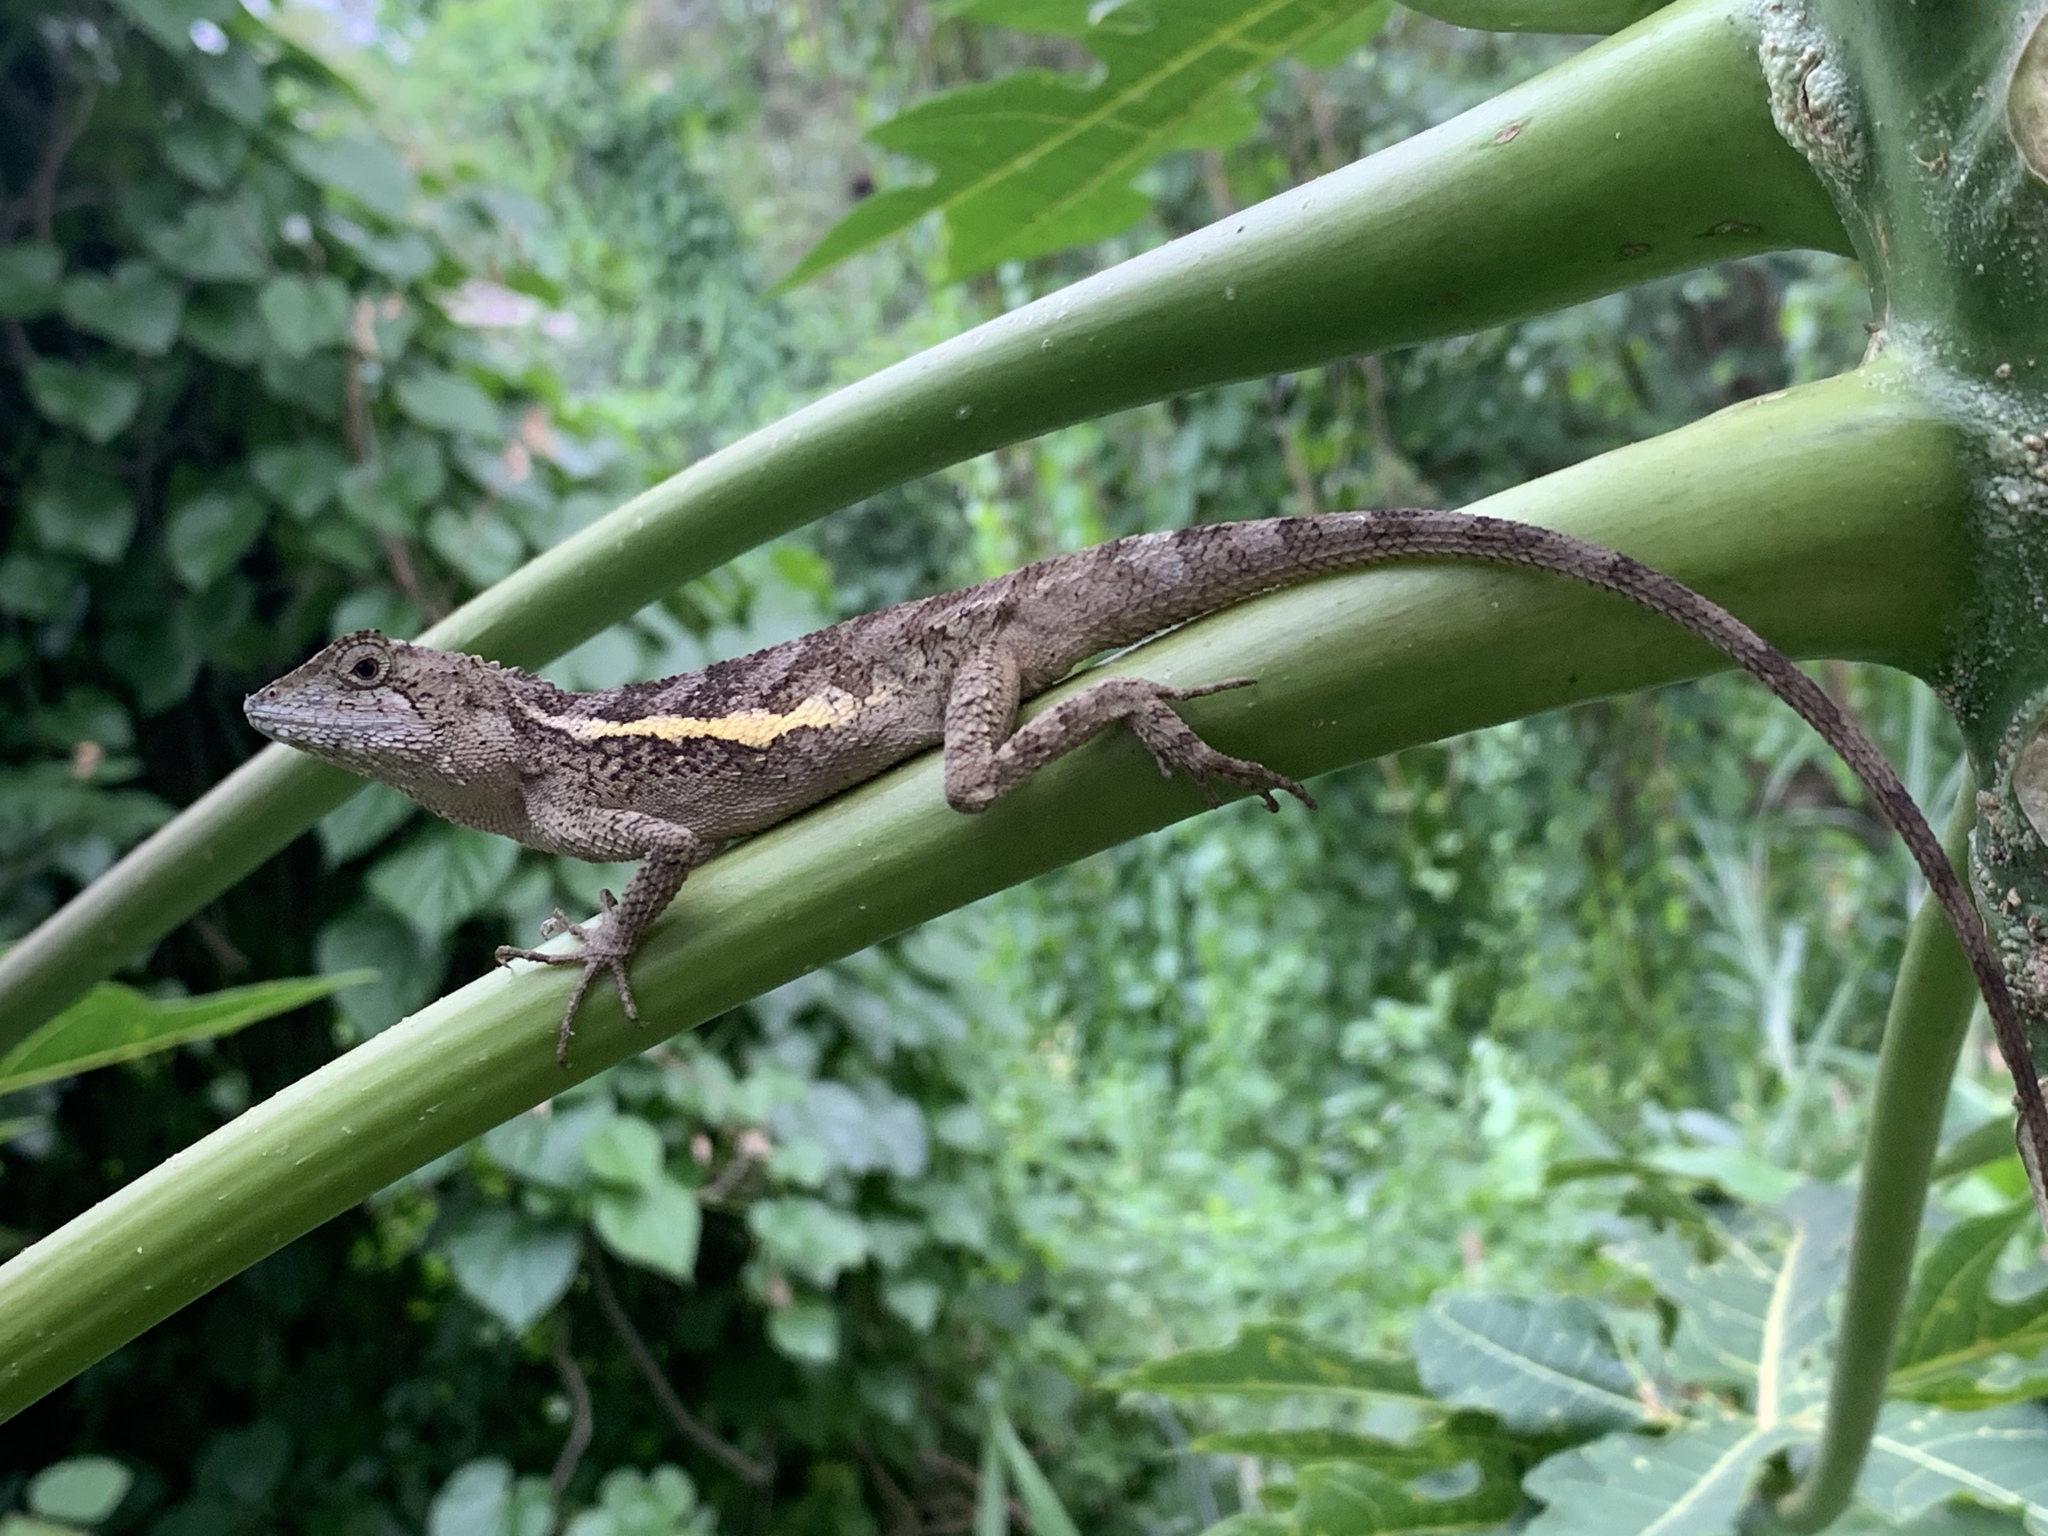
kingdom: Animalia
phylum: Chordata
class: Squamata
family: Agamidae
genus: Diploderma
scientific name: Diploderma swinhonis
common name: Taiwan japalure
